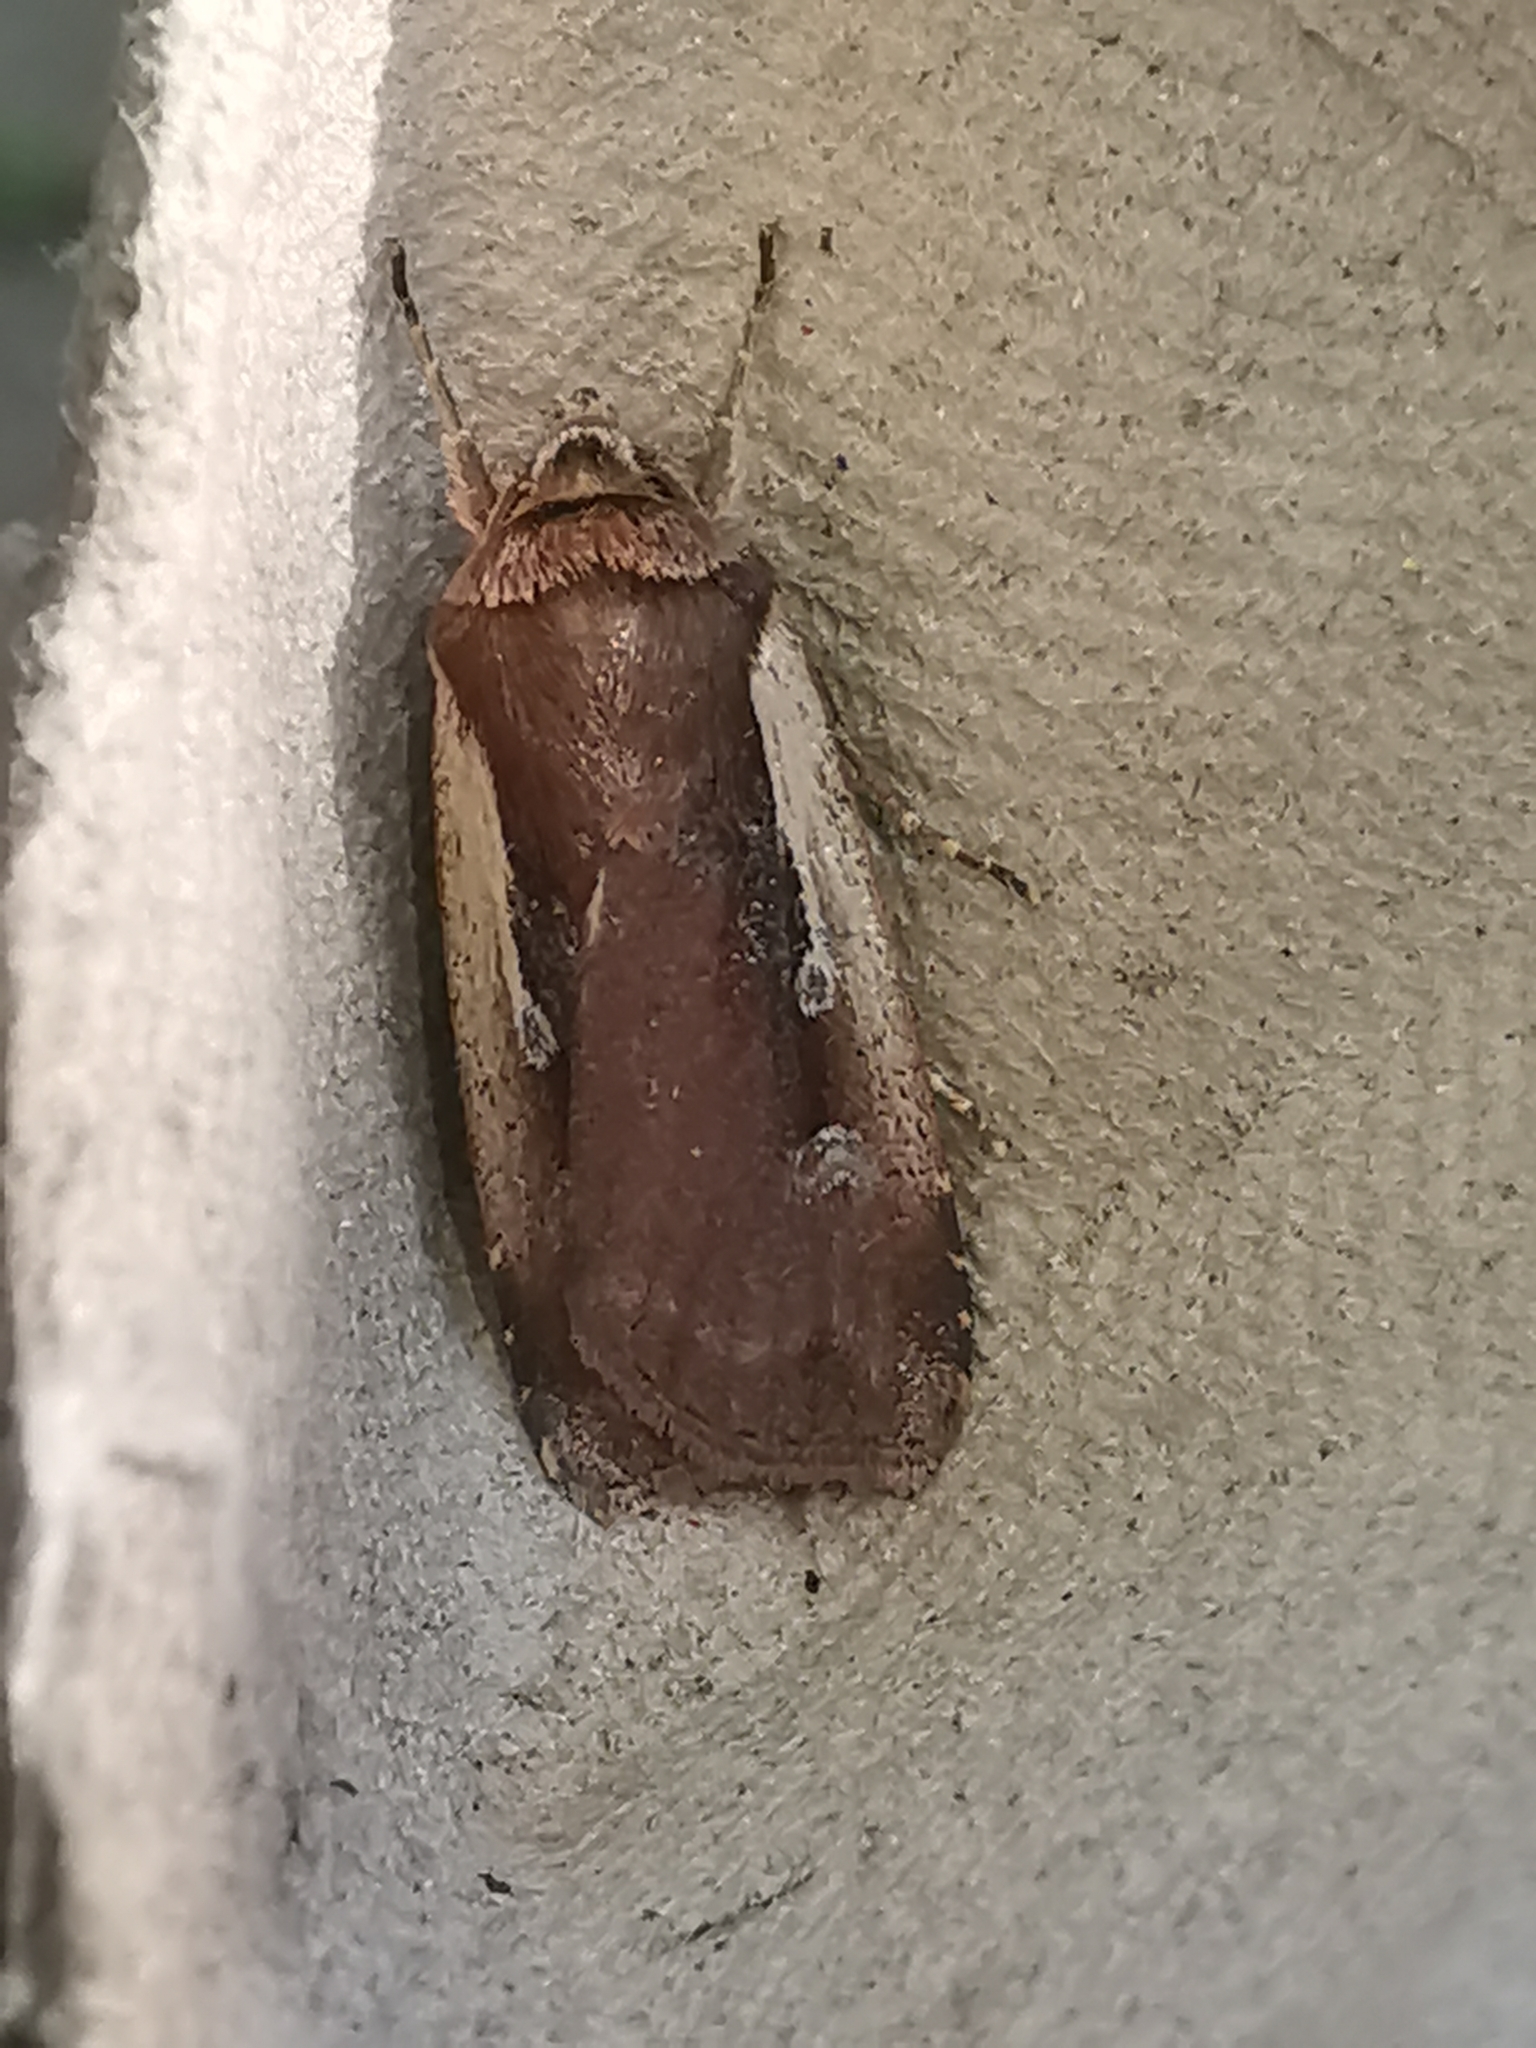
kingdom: Animalia
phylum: Arthropoda
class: Insecta
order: Lepidoptera
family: Noctuidae
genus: Ochropleura
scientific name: Ochropleura plecta
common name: Flame shoulder
